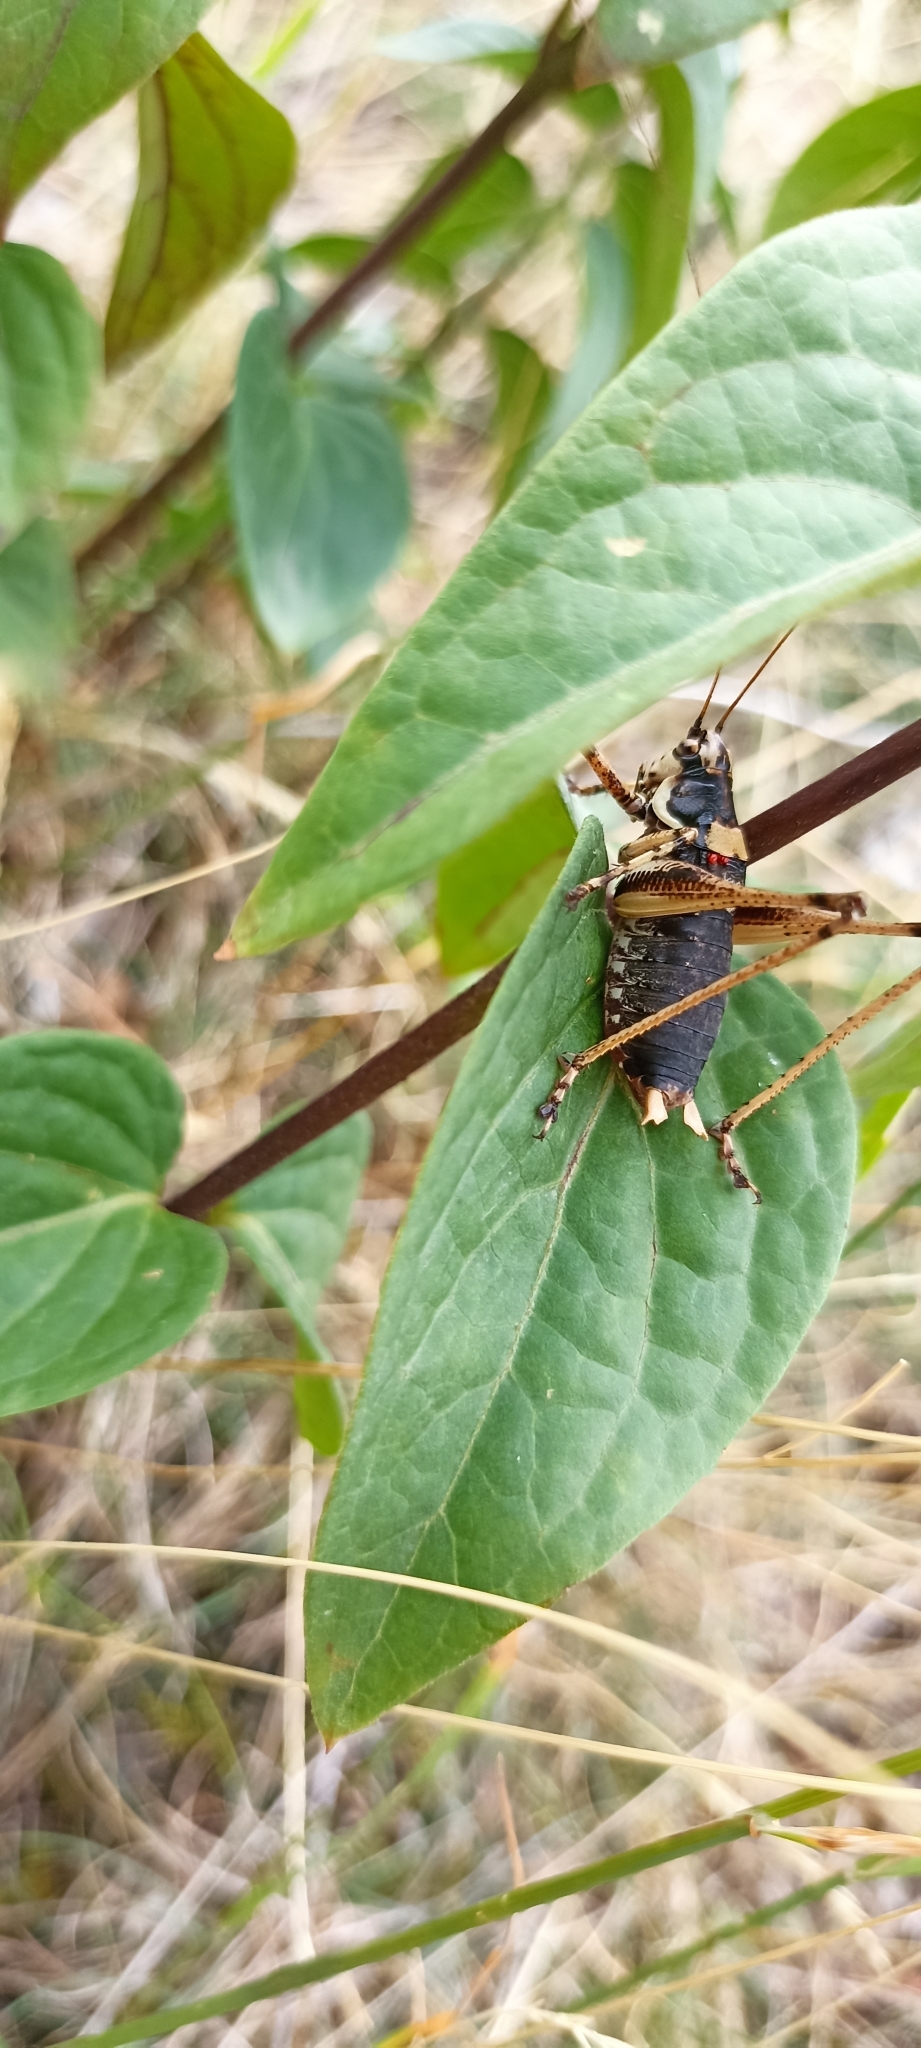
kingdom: Animalia
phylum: Arthropoda
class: Insecta
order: Orthoptera
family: Tettigoniidae
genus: Antaxius
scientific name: Antaxius pedestris
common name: Common mountain bush-cricket
